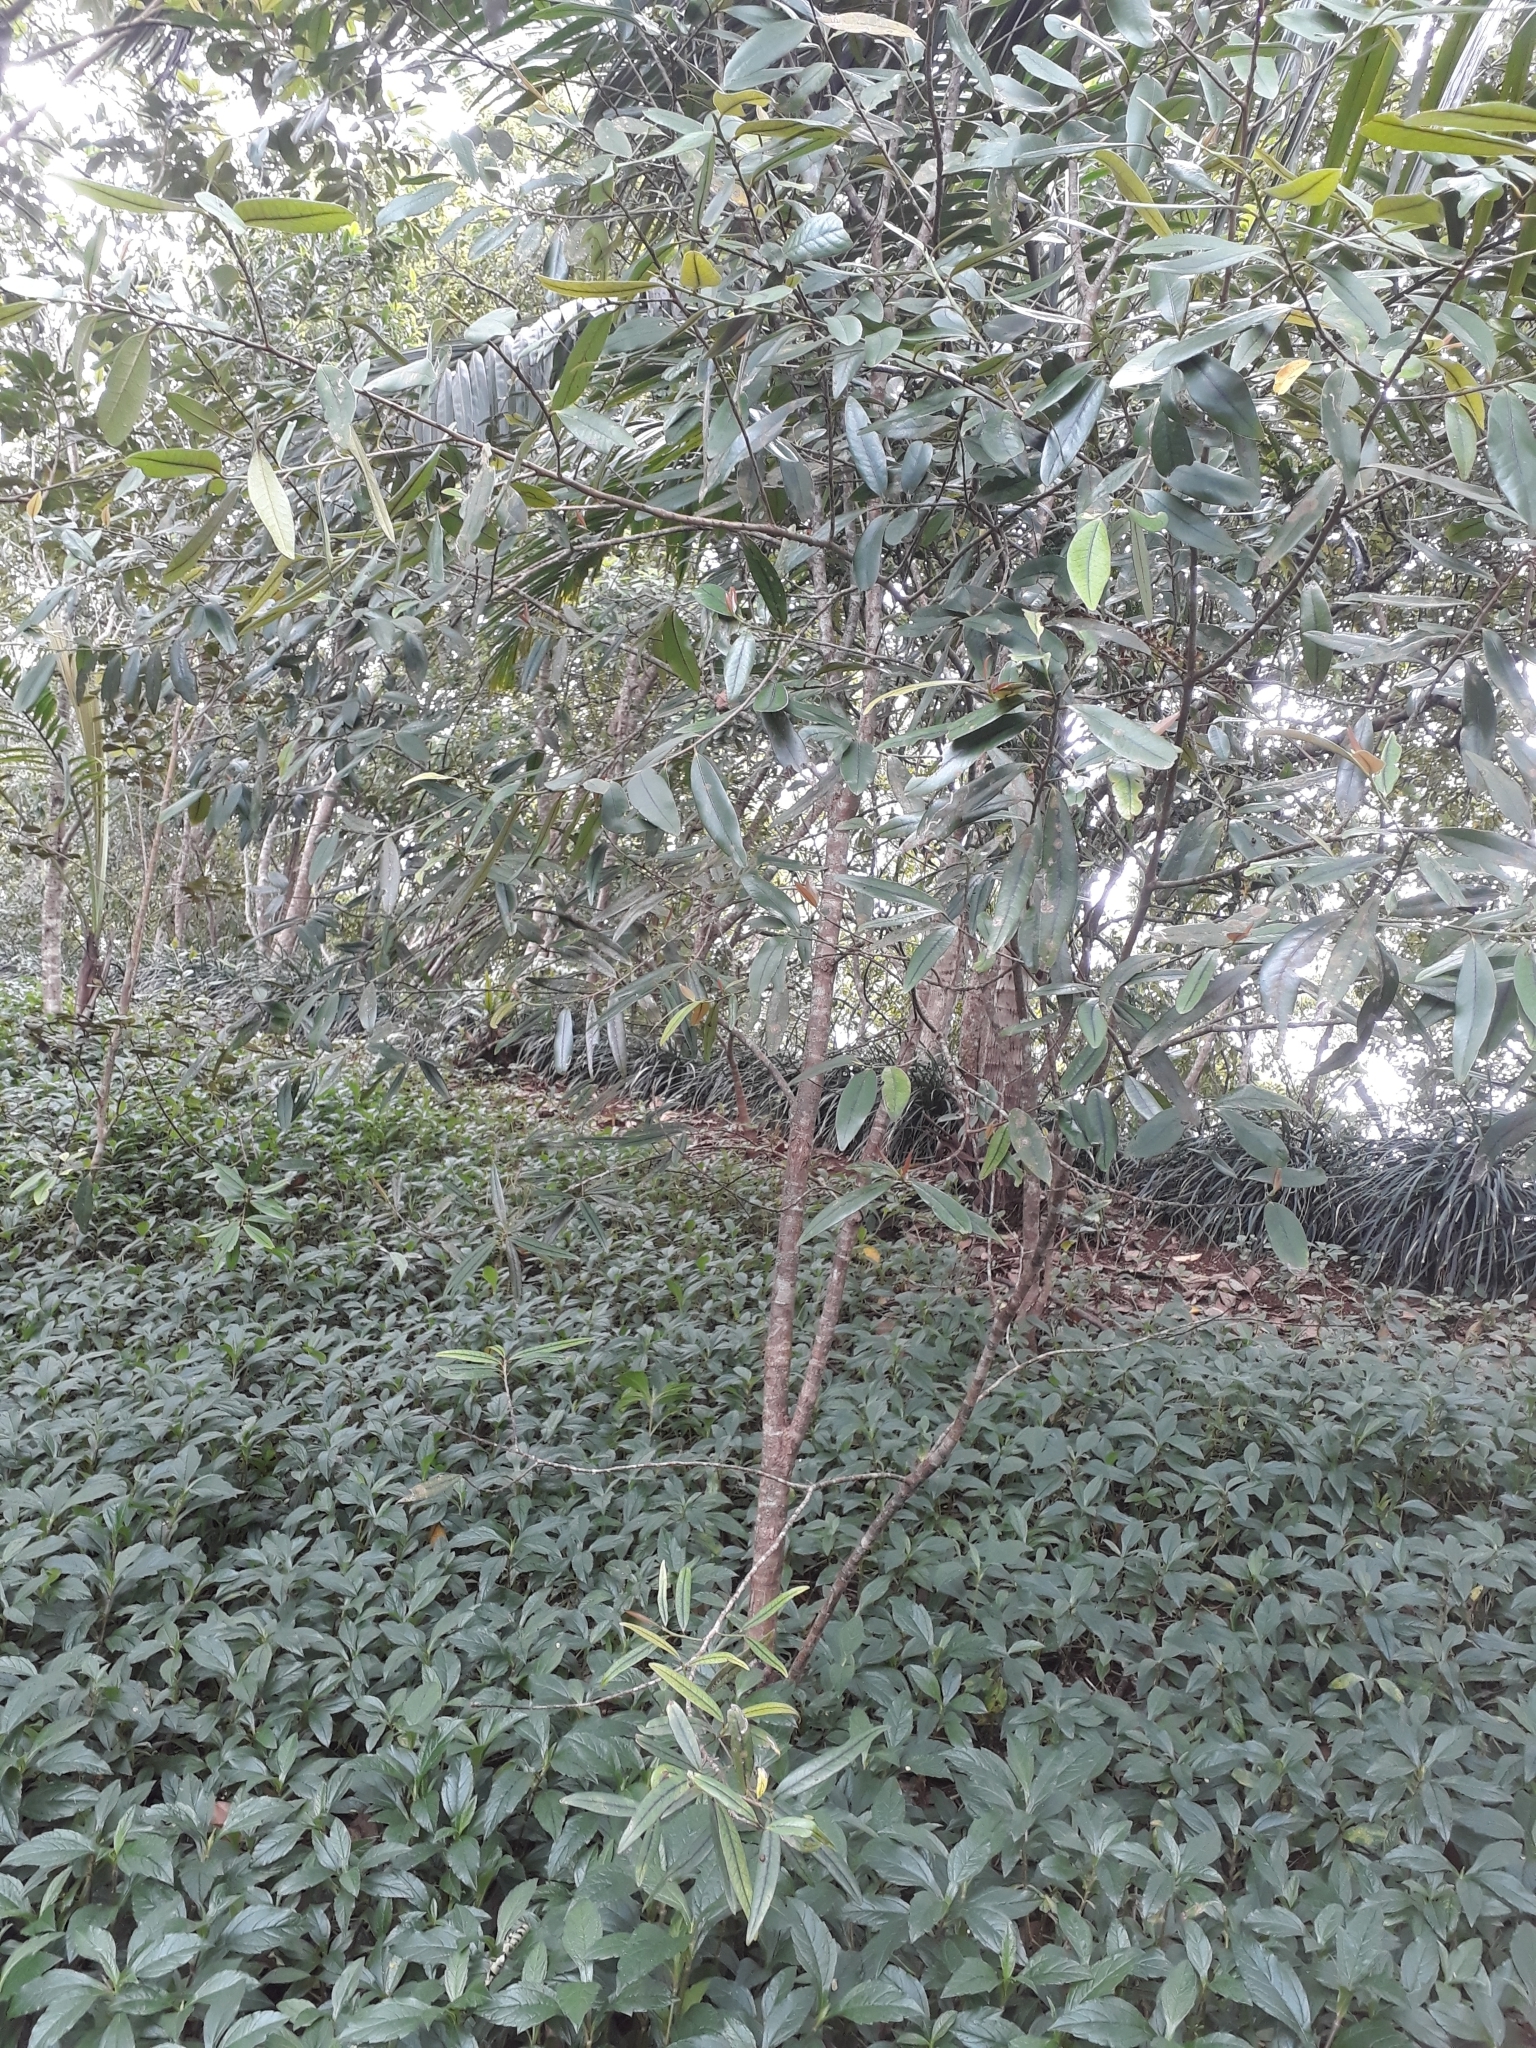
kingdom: Plantae
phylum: Tracheophyta
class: Magnoliopsida
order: Malpighiales
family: Erythroxylaceae
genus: Erythroxylum
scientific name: Erythroxylum sideroxyloides
